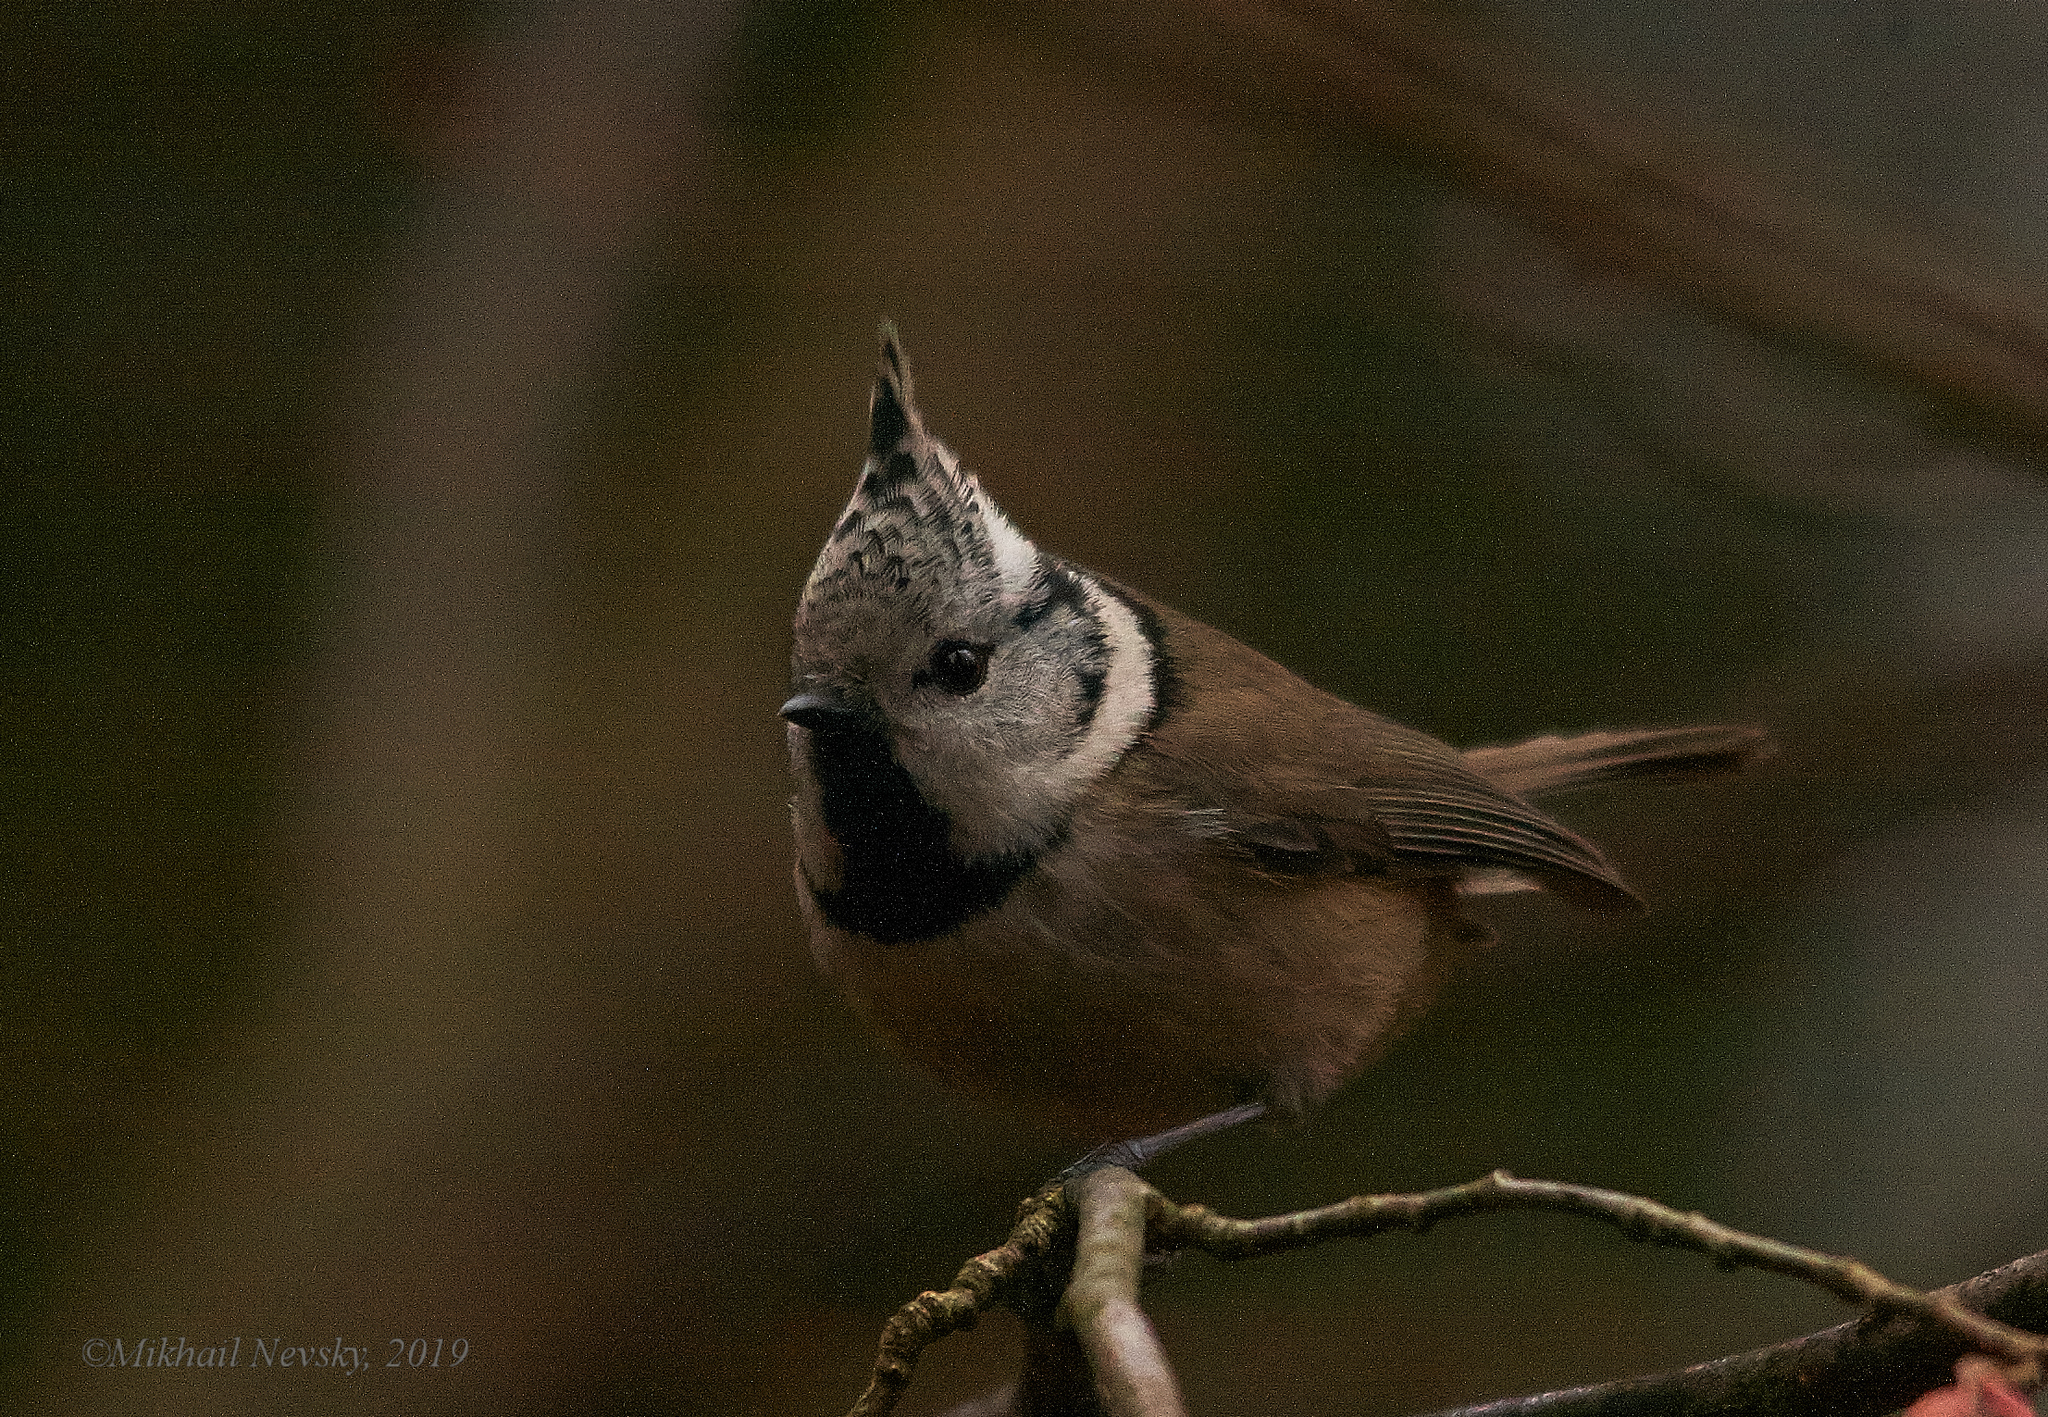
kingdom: Animalia
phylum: Chordata
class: Aves
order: Passeriformes
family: Paridae
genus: Lophophanes
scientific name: Lophophanes cristatus
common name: European crested tit
